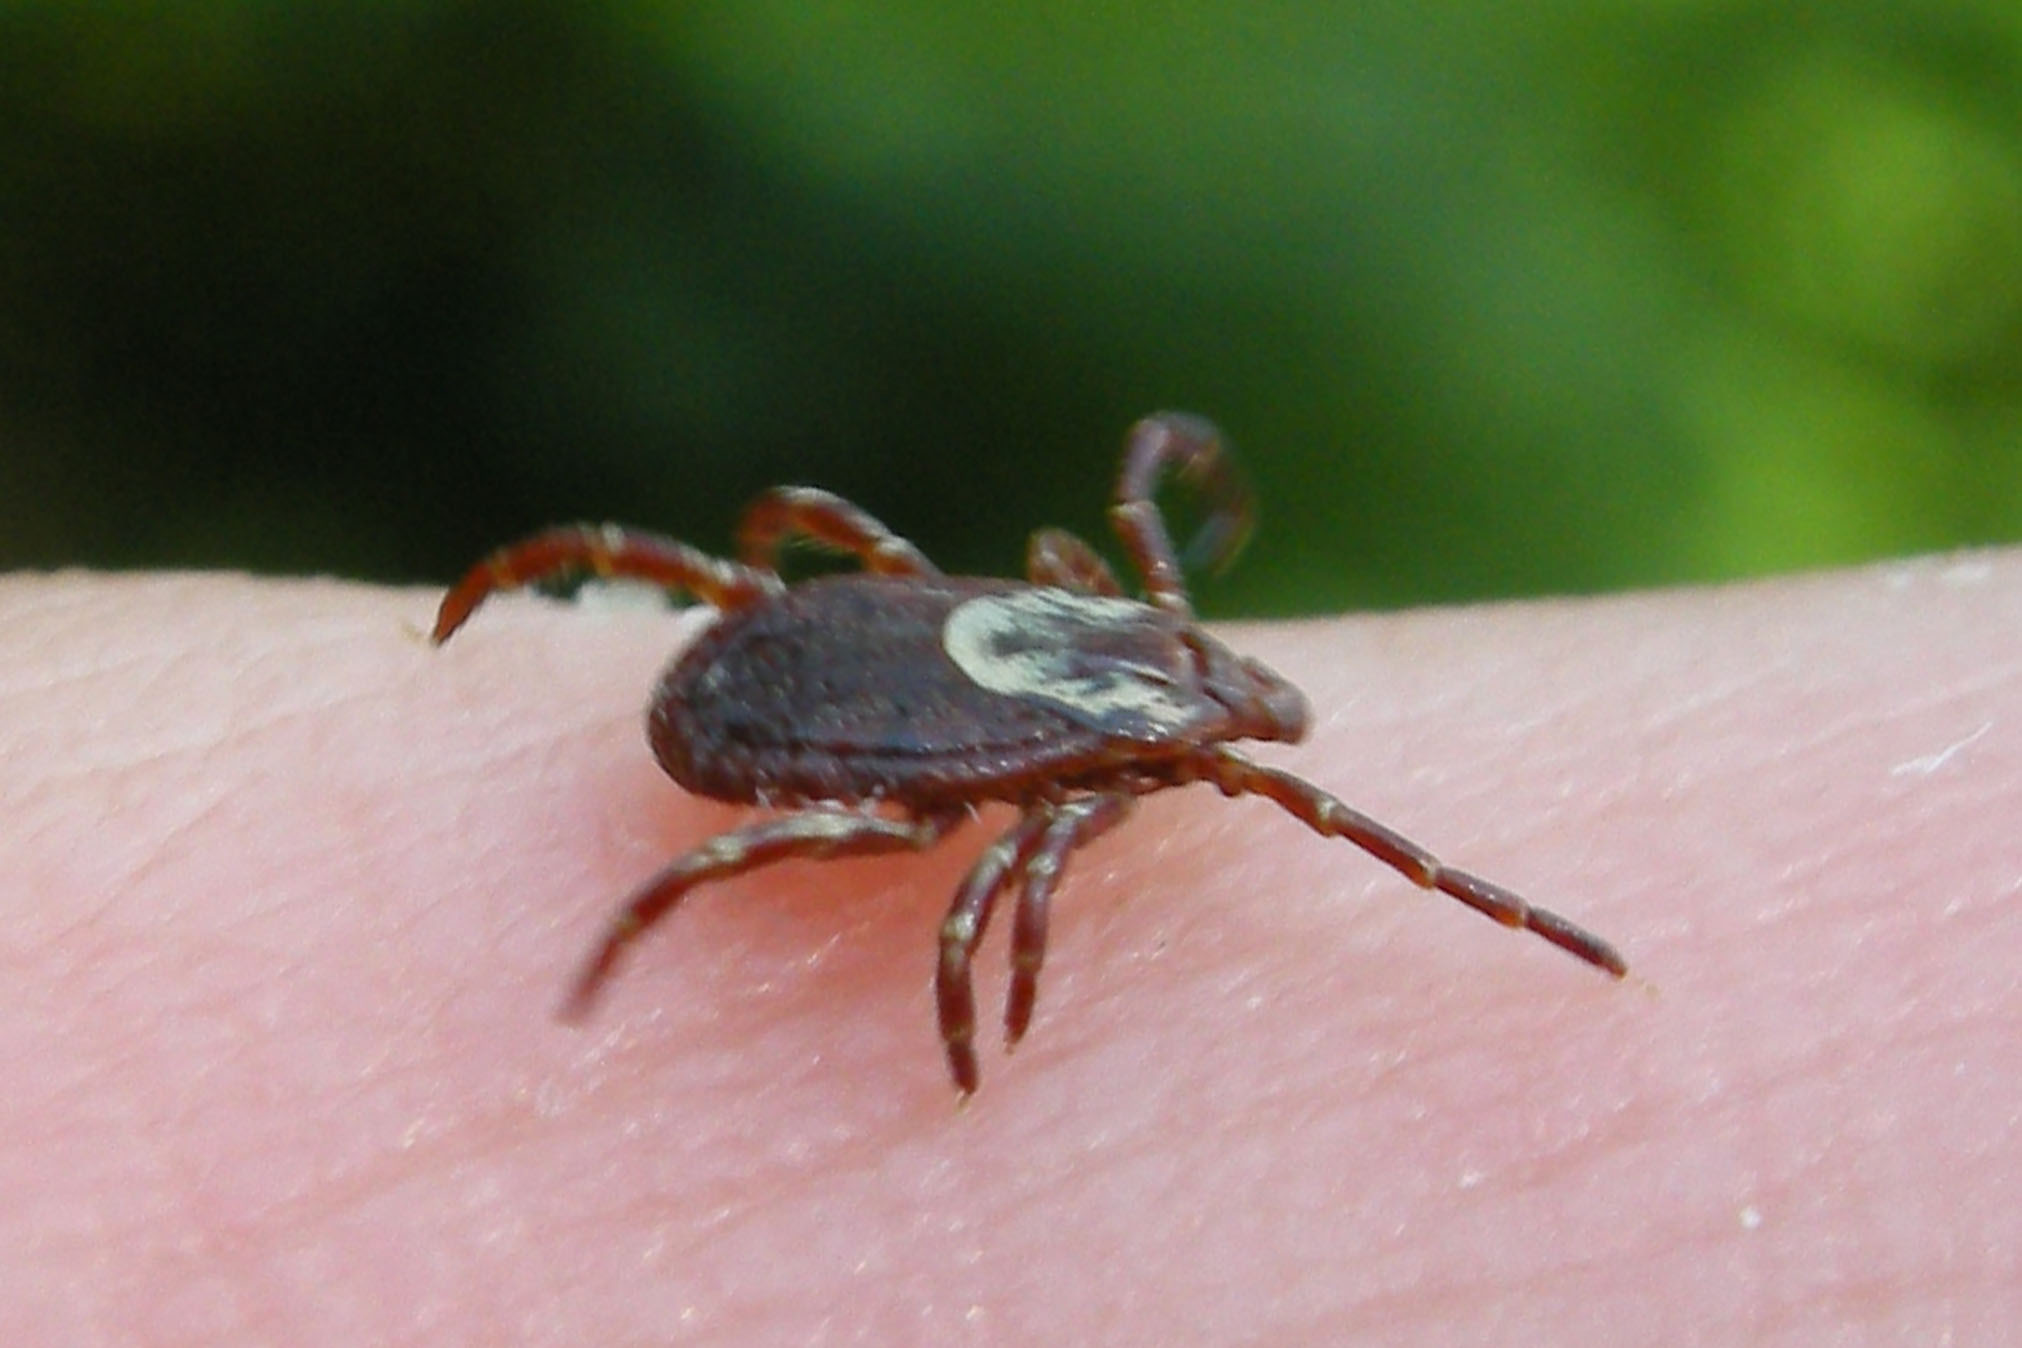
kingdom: Animalia
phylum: Arthropoda
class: Arachnida
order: Ixodida
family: Ixodidae
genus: Dermacentor
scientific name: Dermacentor variabilis
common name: American dog tick
